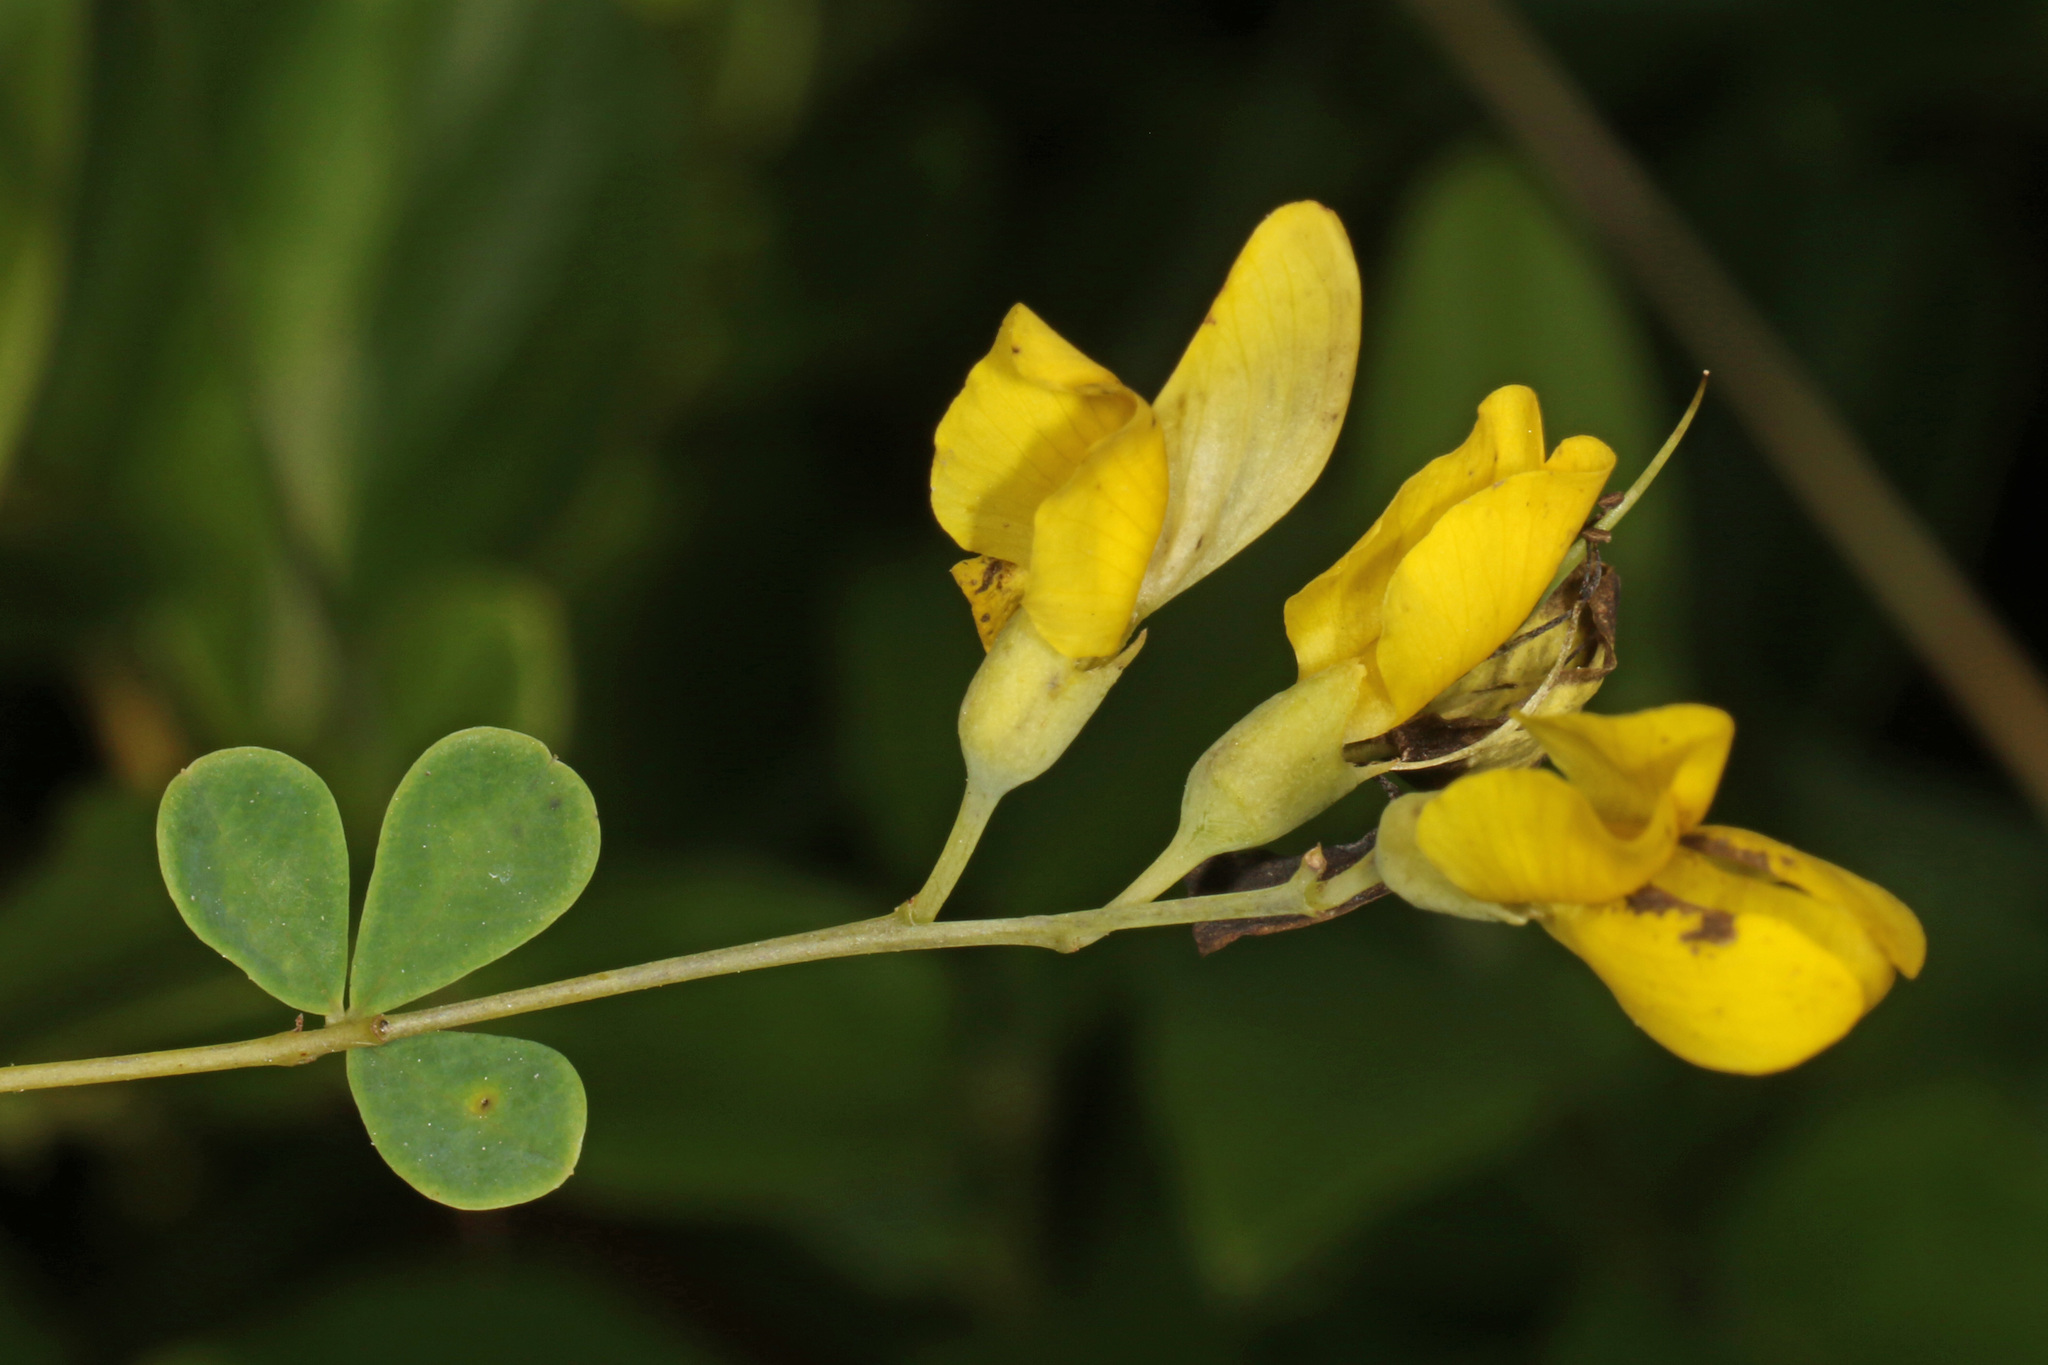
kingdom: Plantae
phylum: Tracheophyta
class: Magnoliopsida
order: Fabales
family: Fabaceae
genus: Baptisia
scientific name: Baptisia tinctoria
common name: Wild indigo
